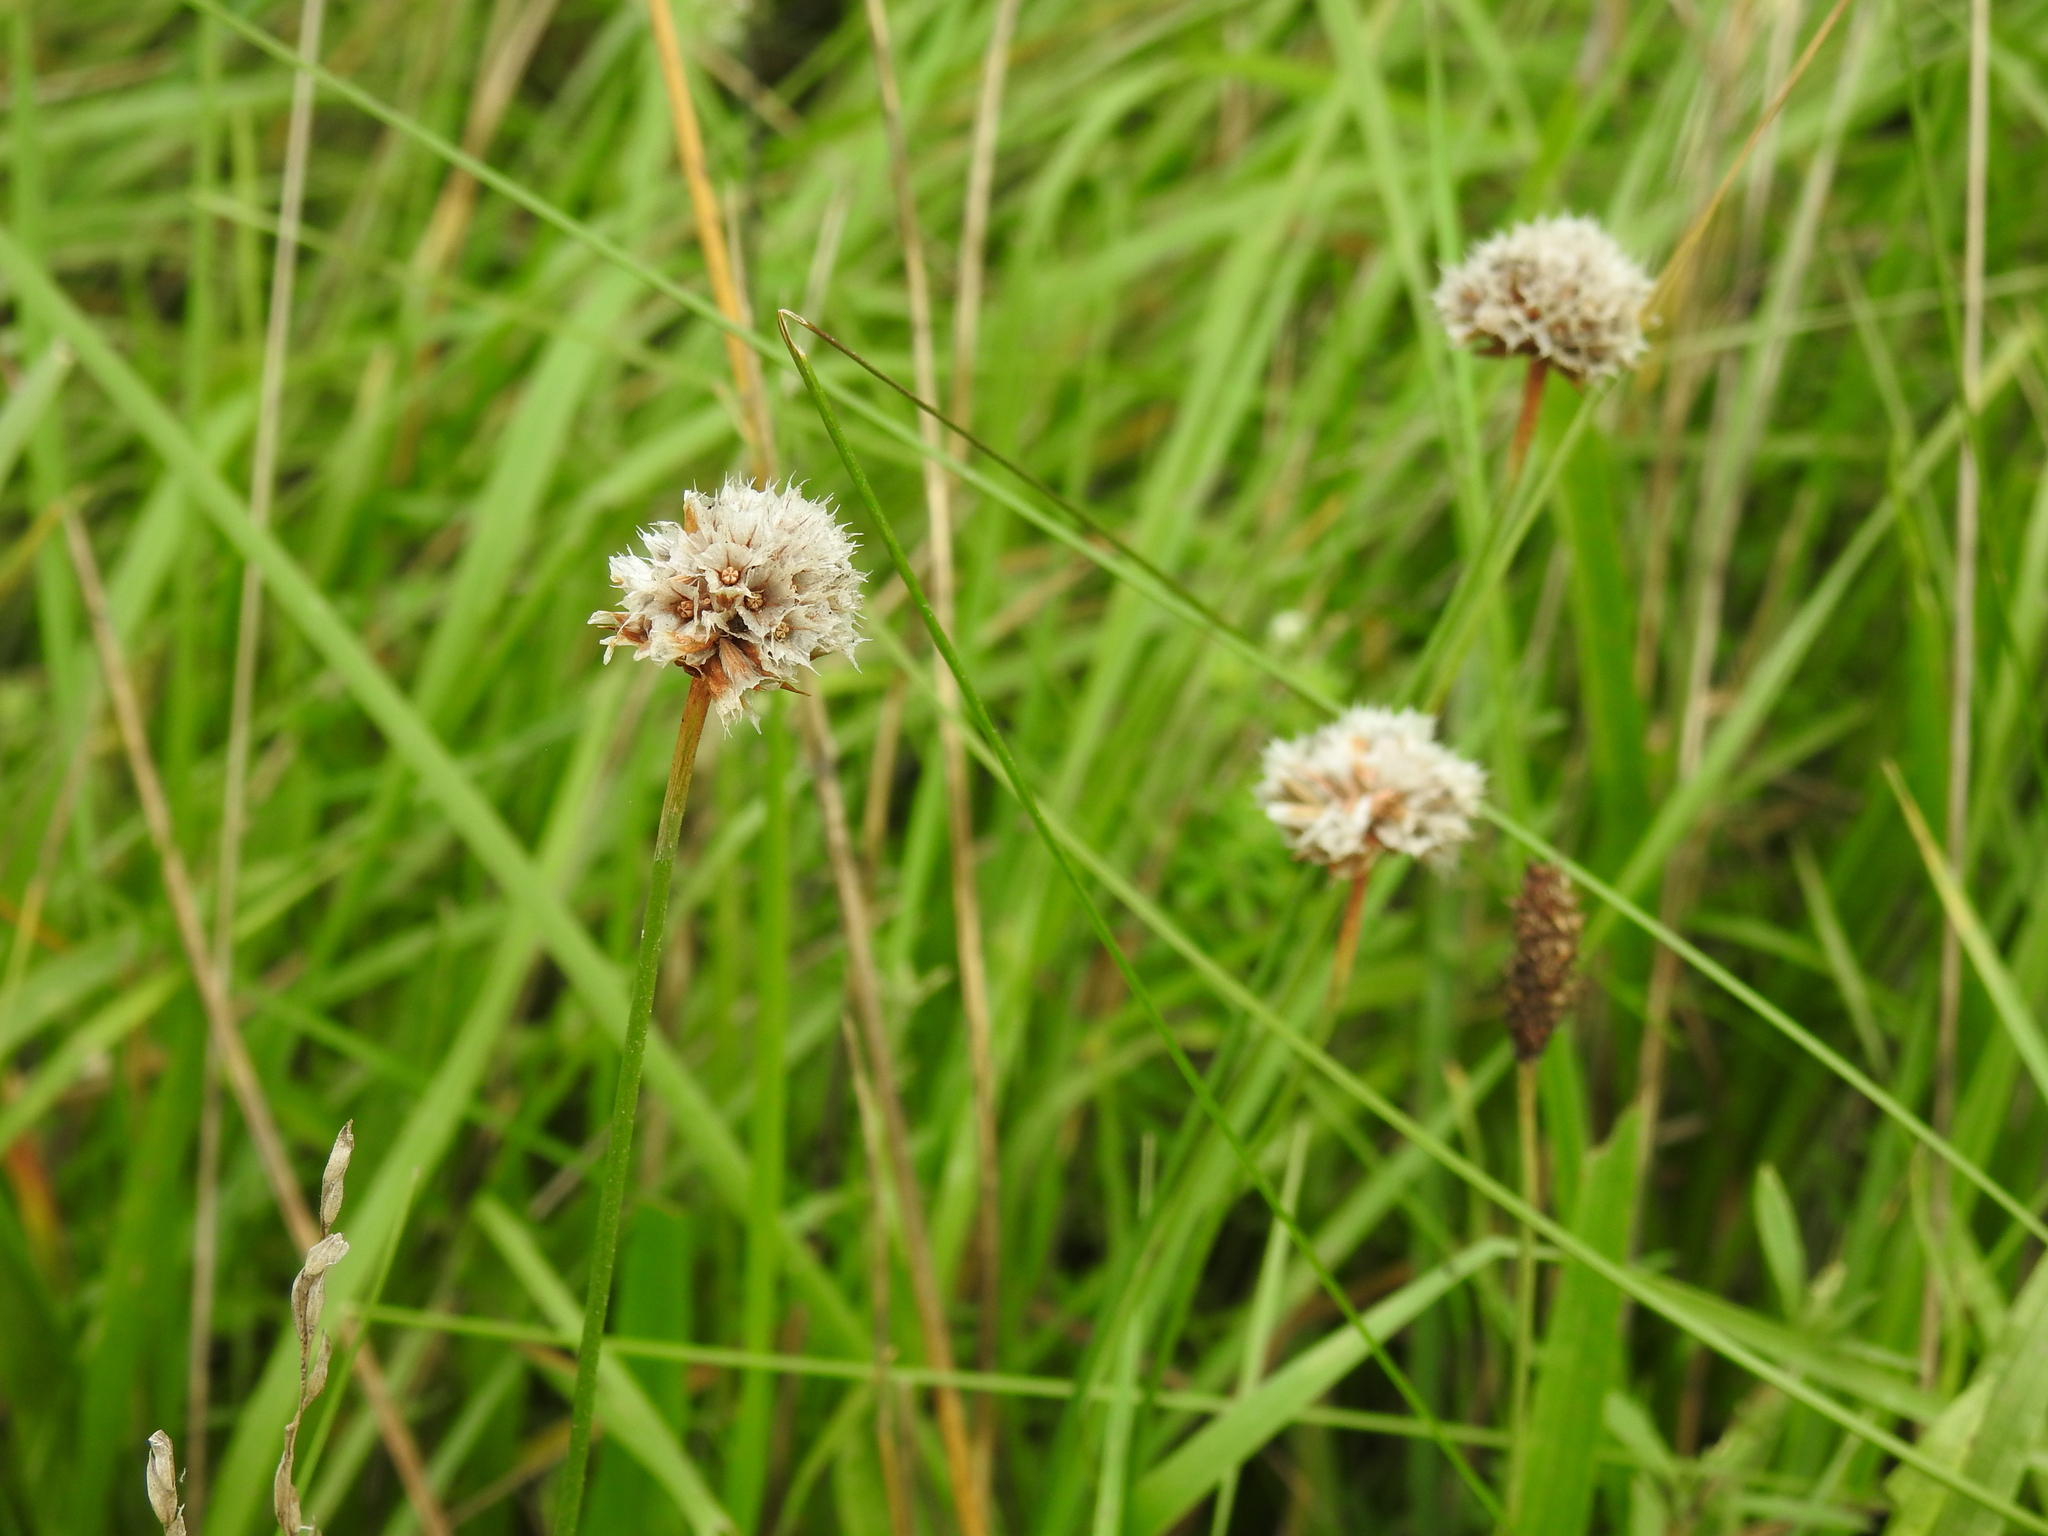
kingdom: Plantae
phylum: Tracheophyta
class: Magnoliopsida
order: Caryophyllales
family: Plumbaginaceae
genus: Armeria
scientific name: Armeria maritima
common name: Thrift
